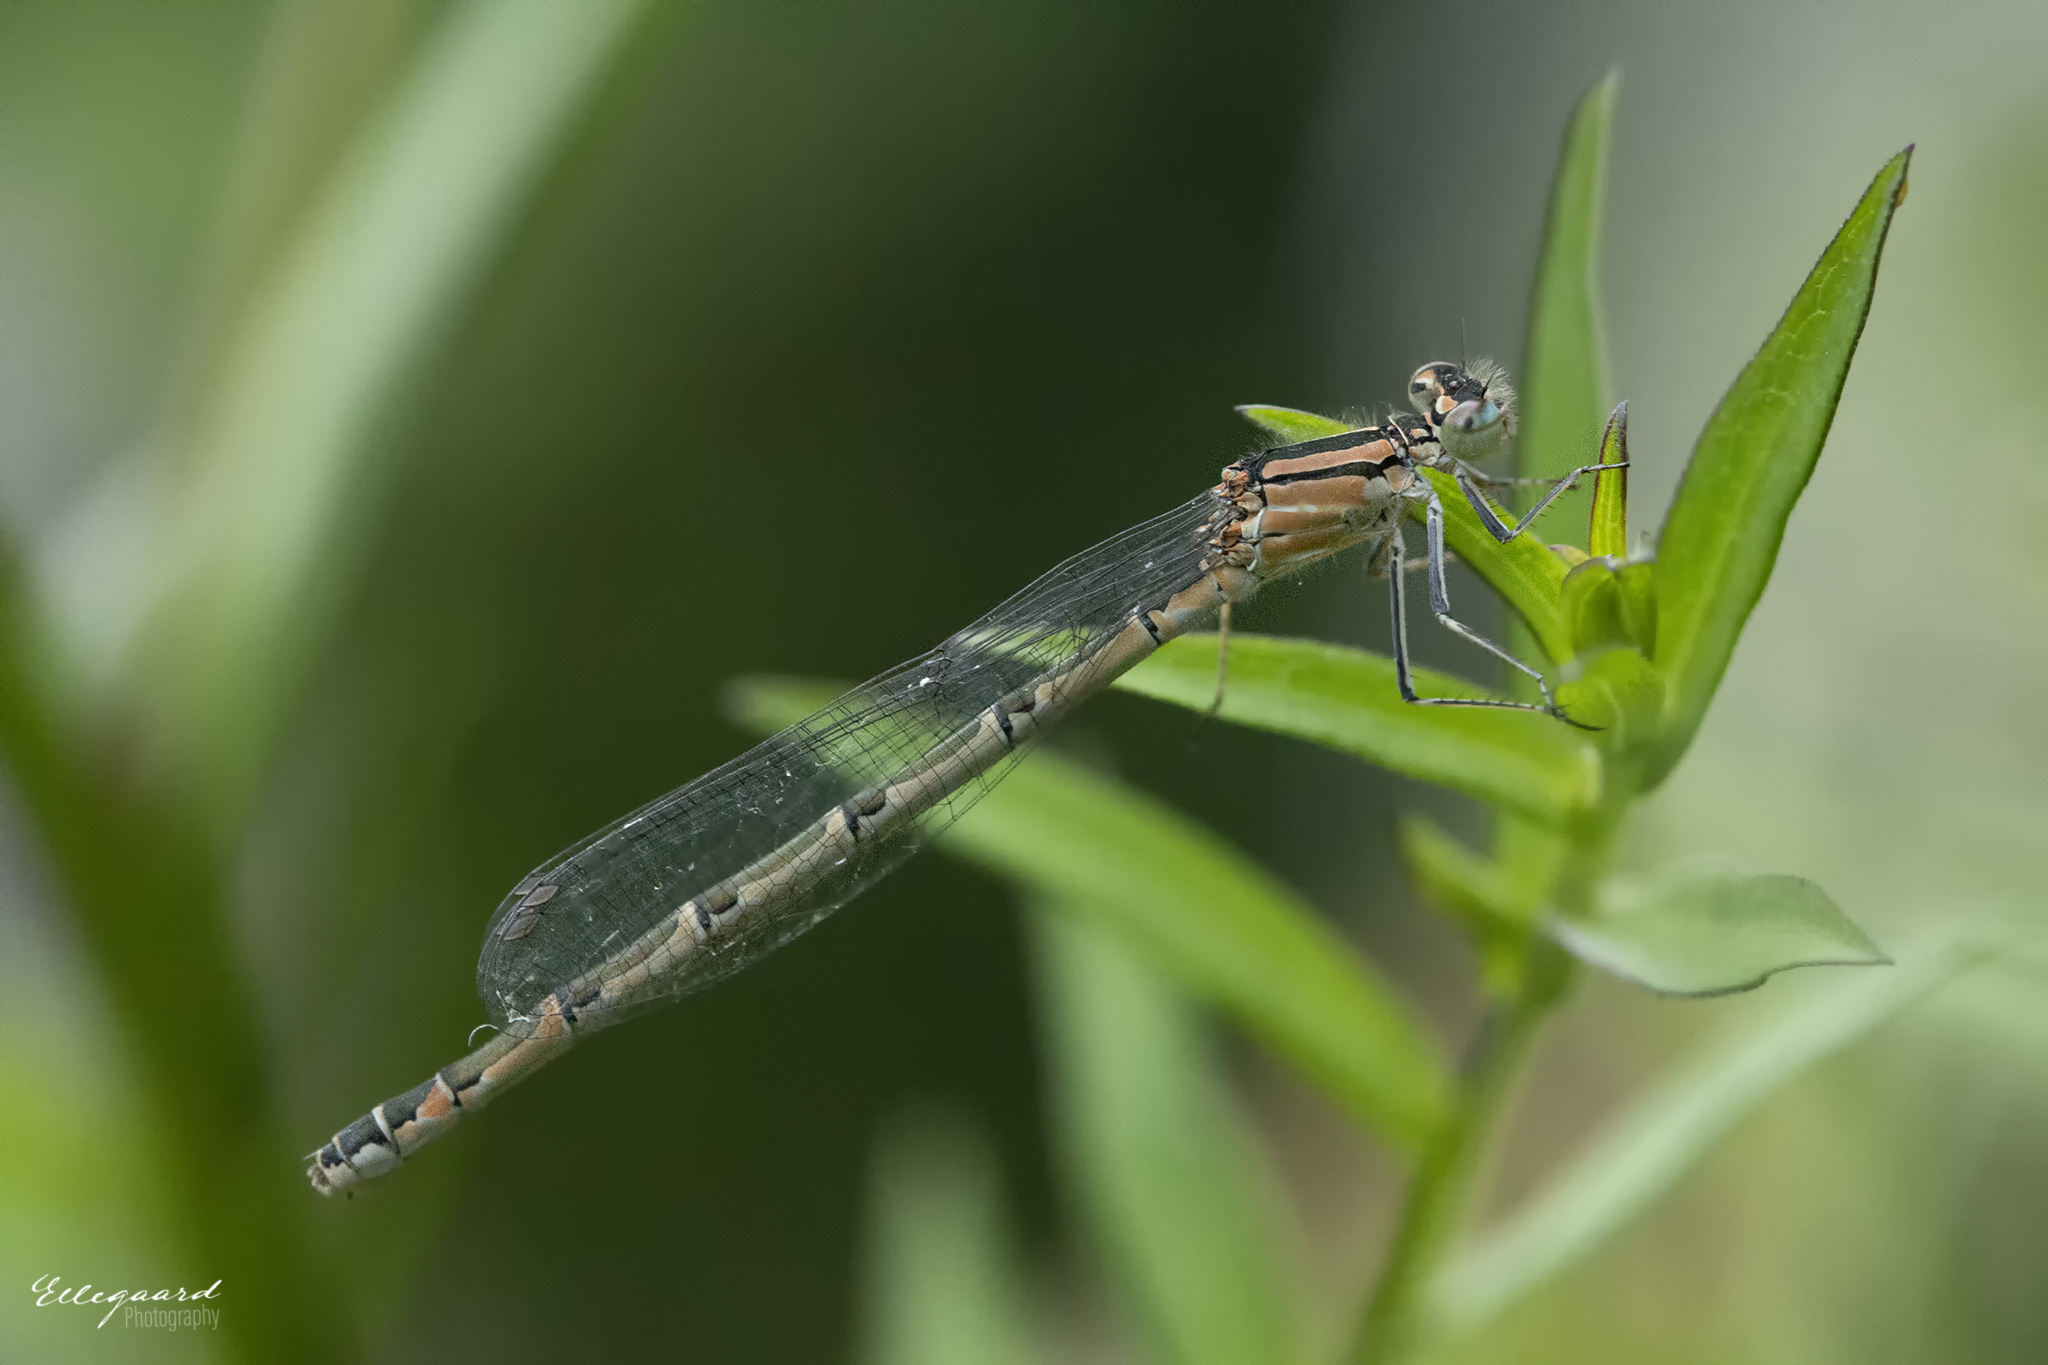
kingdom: Animalia
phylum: Arthropoda
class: Insecta
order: Odonata
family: Coenagrionidae
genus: Enallagma
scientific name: Enallagma cyathigerum
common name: Common blue damselfly
